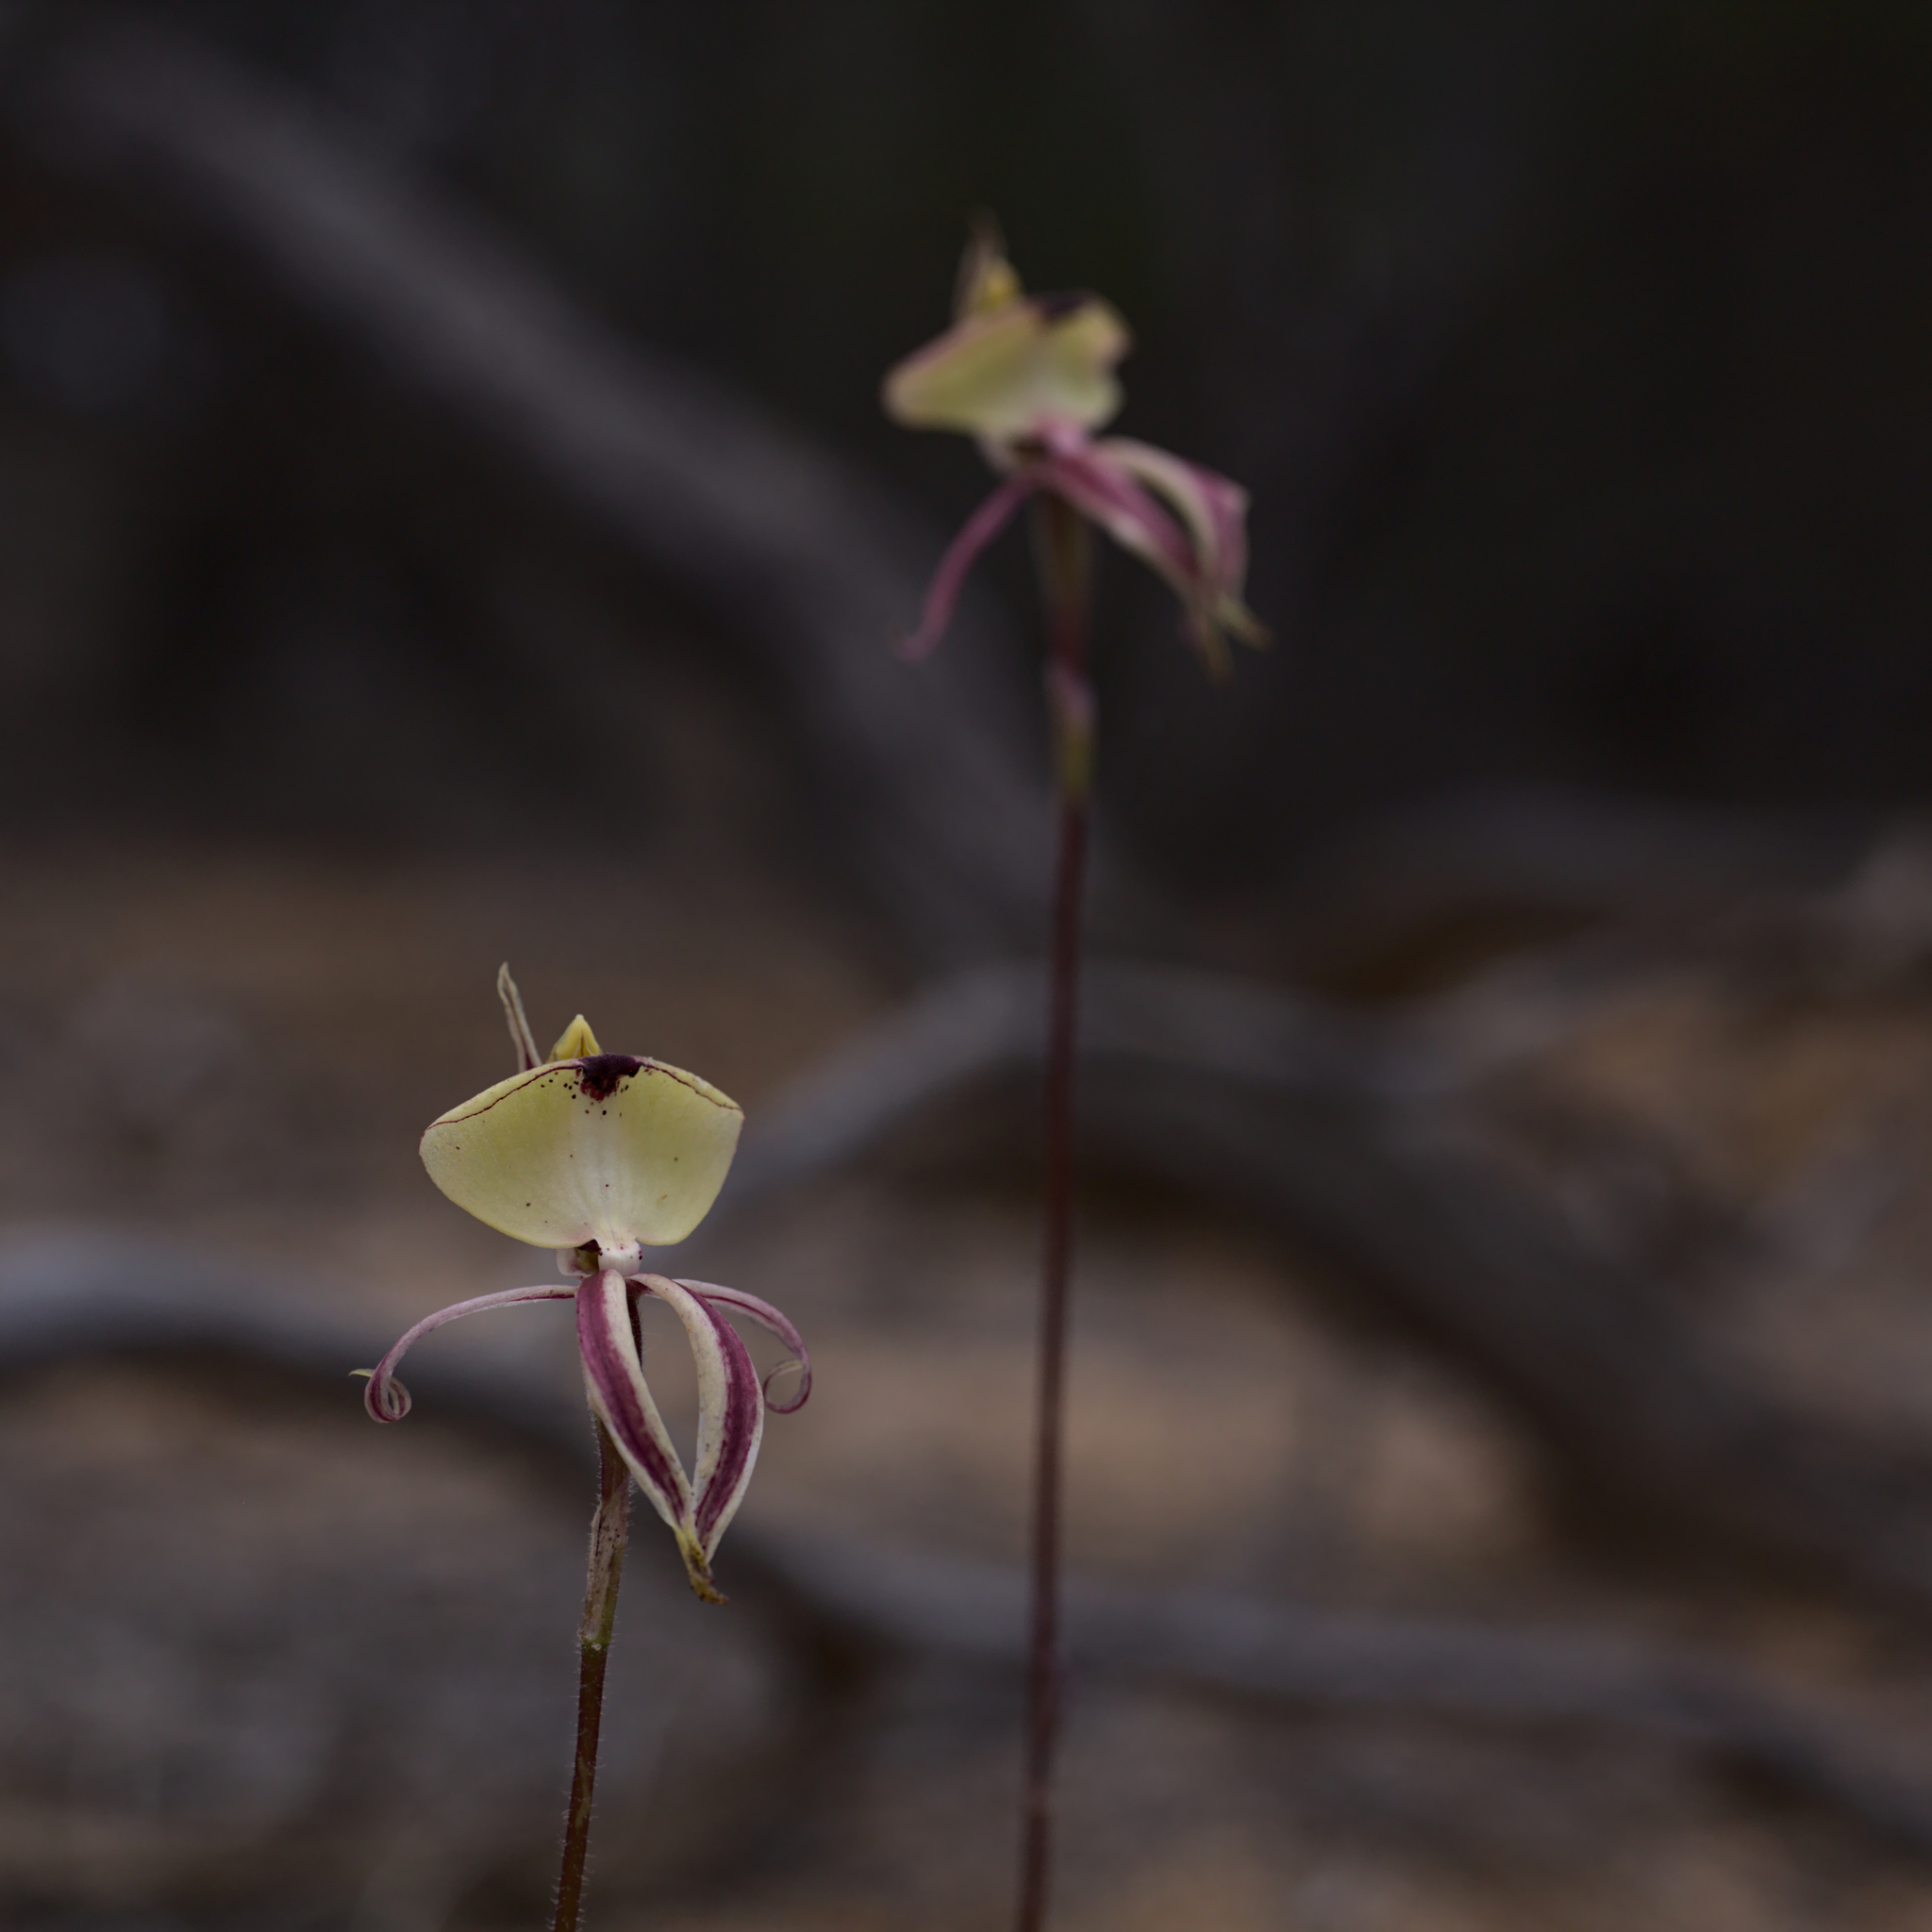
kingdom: Plantae
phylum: Tracheophyta
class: Liliopsida
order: Asparagales
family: Orchidaceae
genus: Caladenia
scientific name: Caladenia roei
